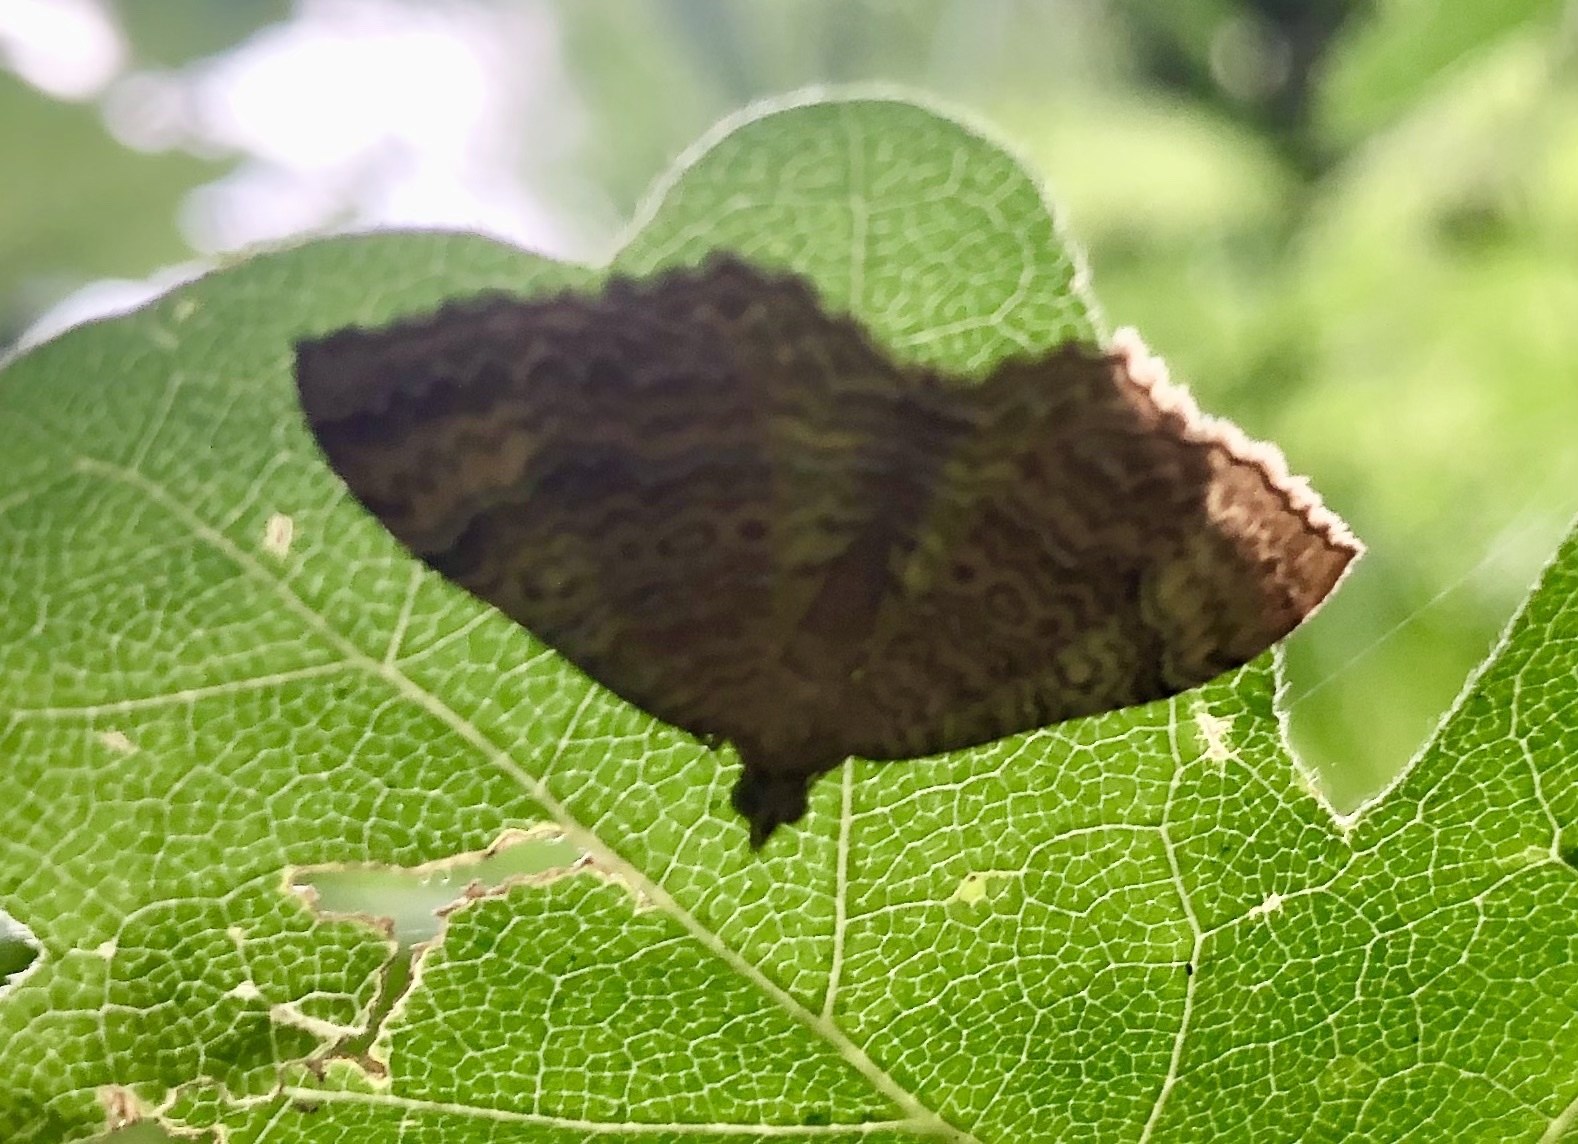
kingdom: Animalia
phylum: Arthropoda
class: Insecta
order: Lepidoptera
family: Geometridae
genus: Camptogramma
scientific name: Camptogramma bilineata
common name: Yellow shell
